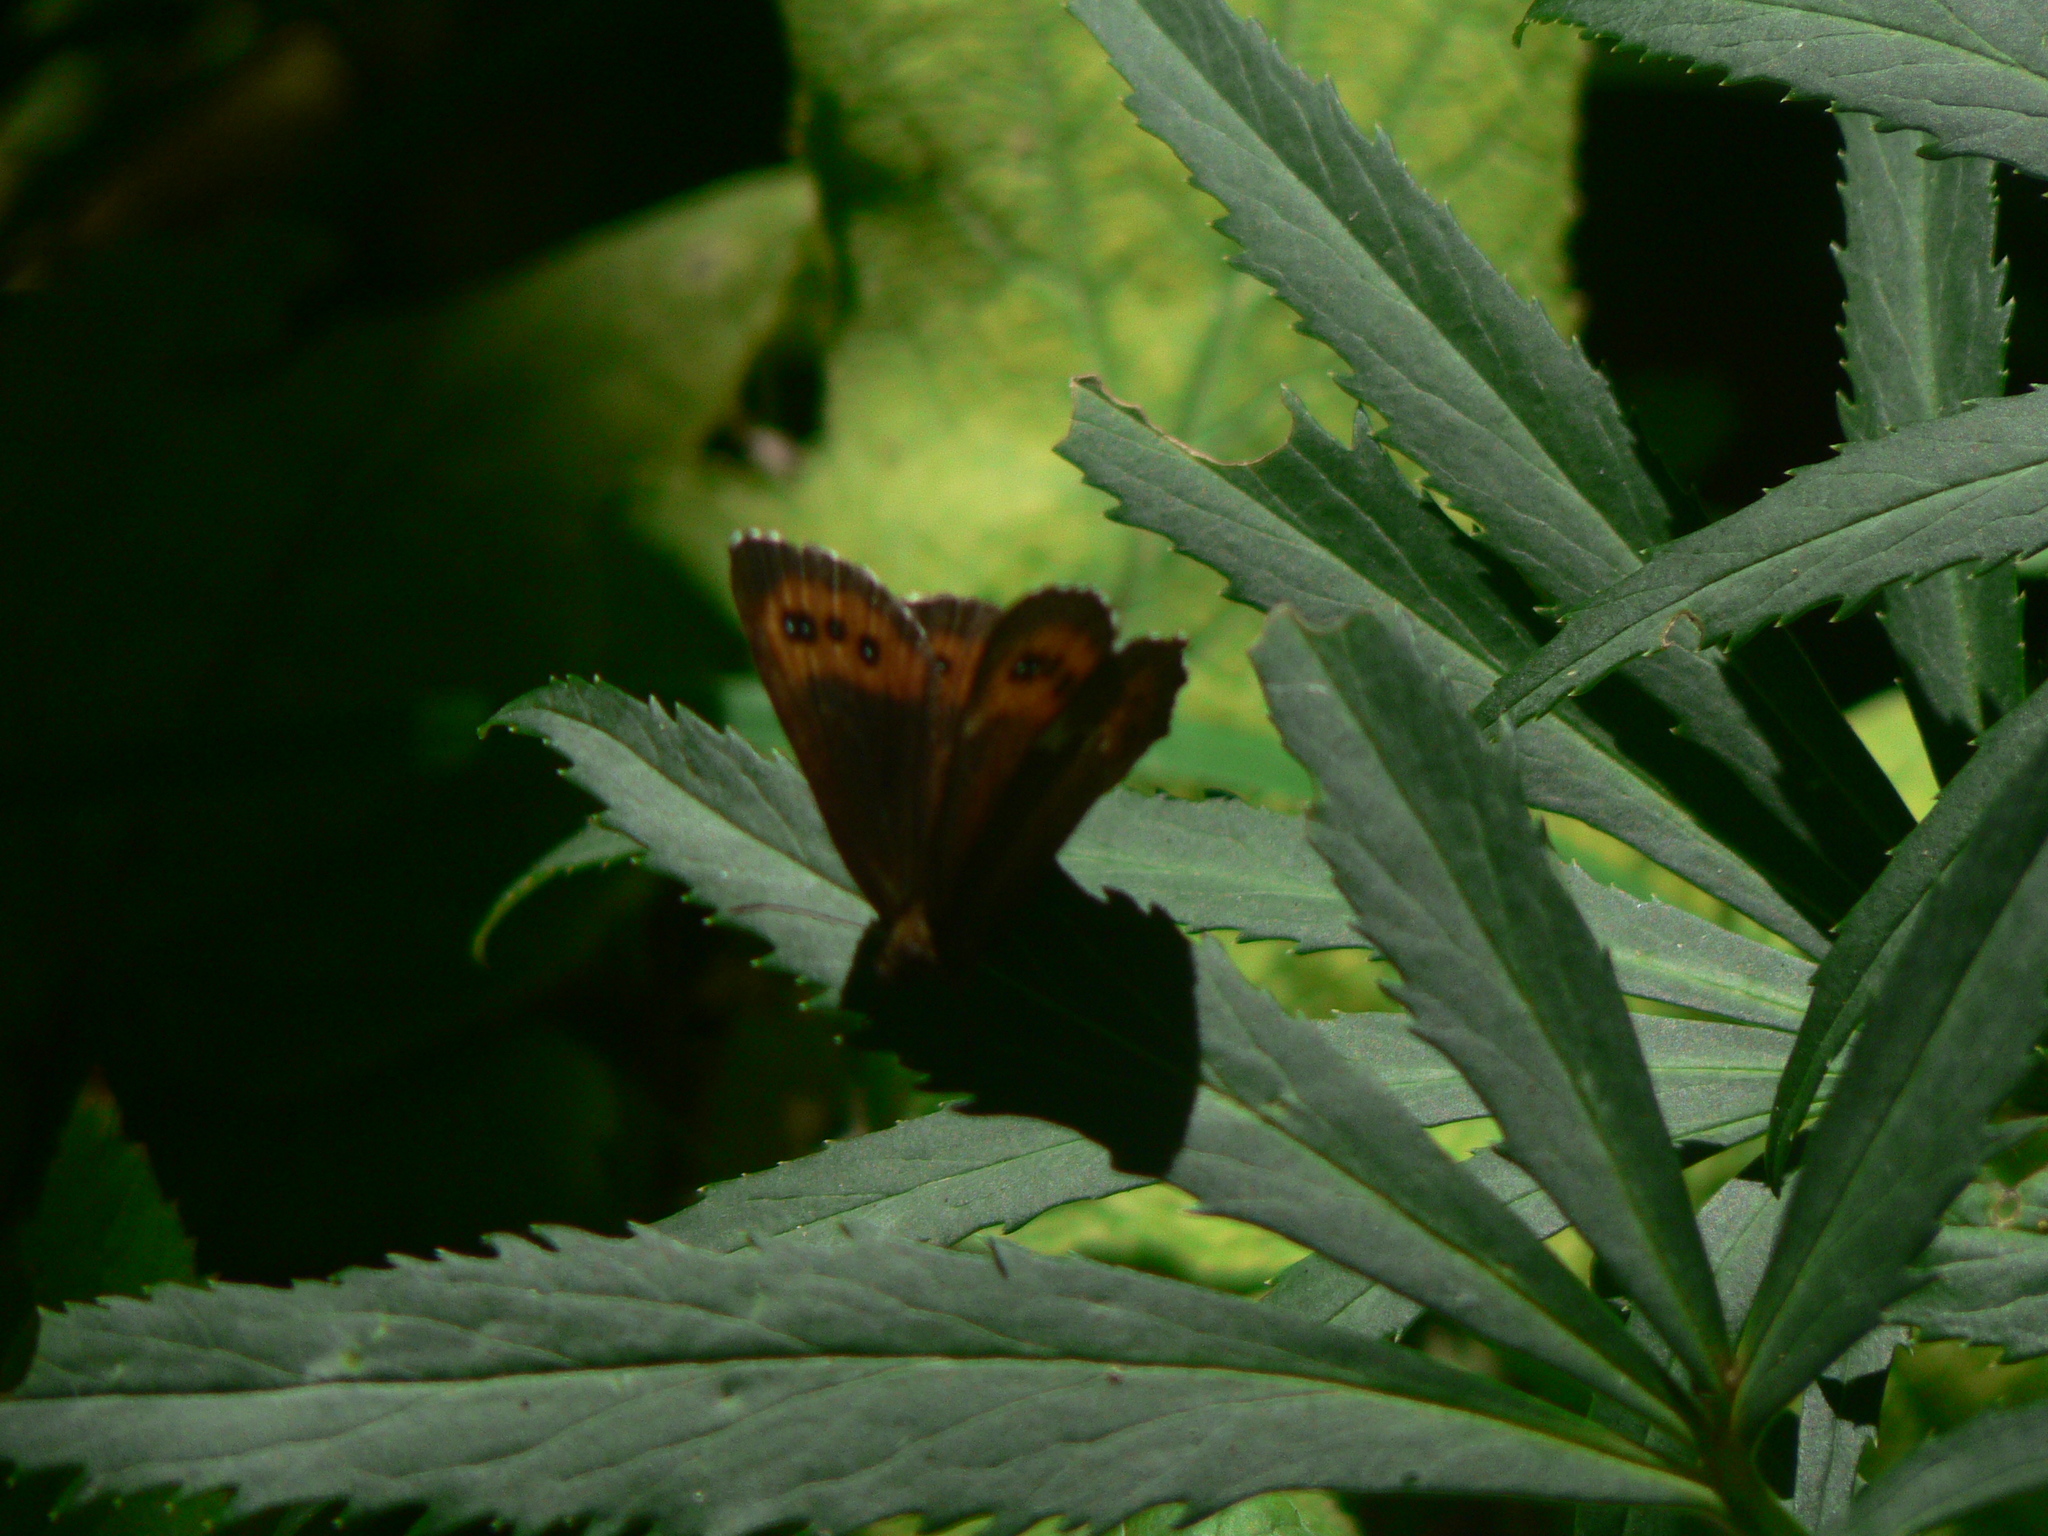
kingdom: Animalia
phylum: Arthropoda
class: Insecta
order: Lepidoptera
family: Nymphalidae
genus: Erebia
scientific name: Erebia ligea
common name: Arran brown
